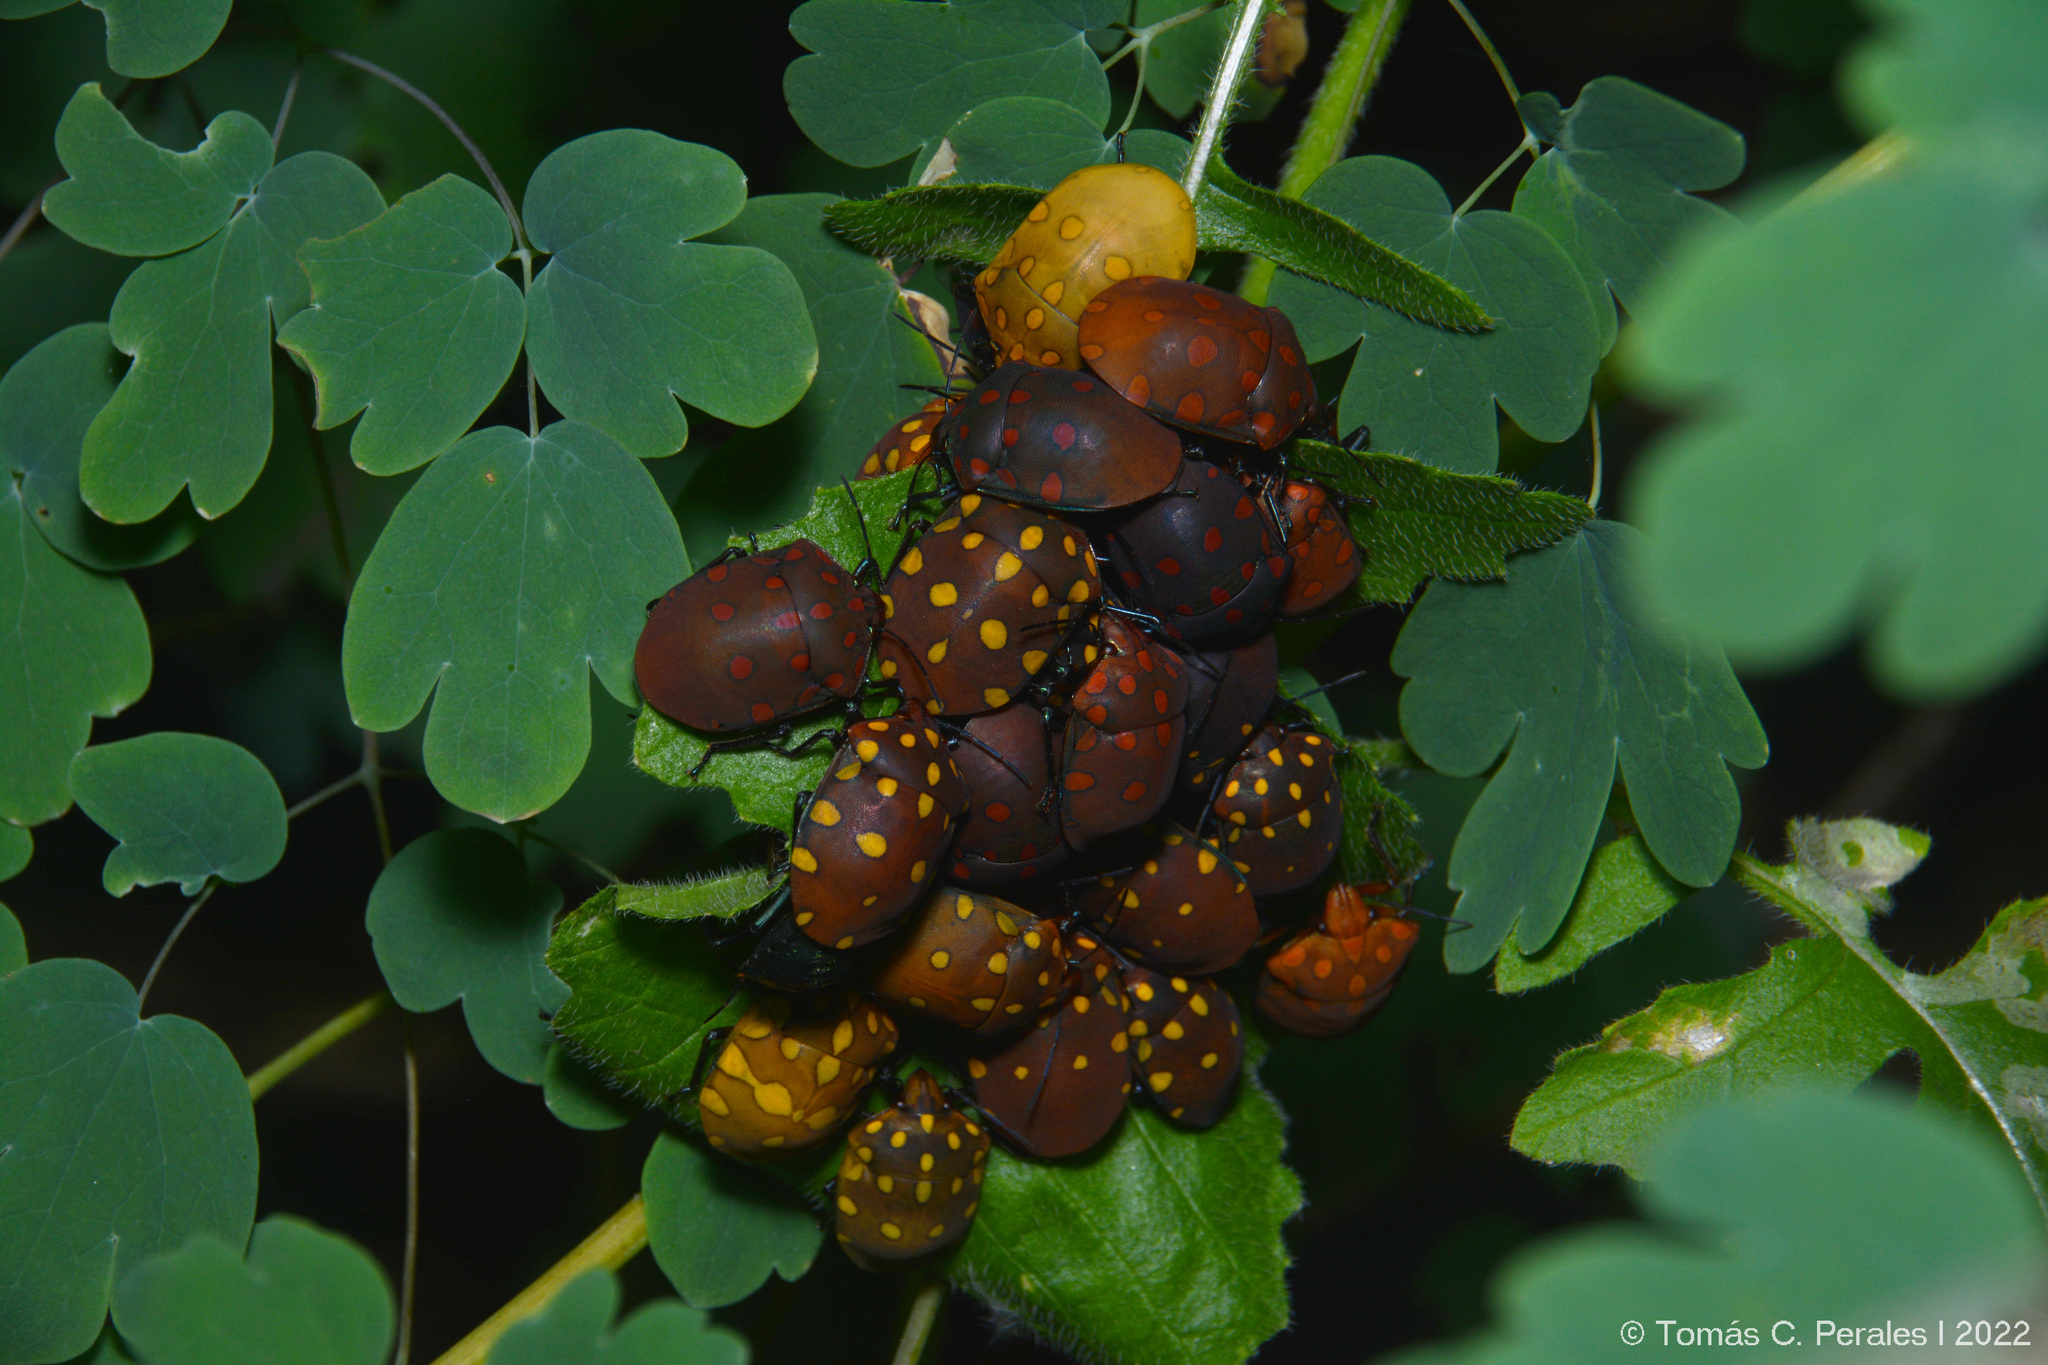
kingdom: Animalia
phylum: Arthropoda
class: Insecta
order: Hemiptera
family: Scutelleridae
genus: Pachycoris
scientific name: Pachycoris torridus
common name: Torrid jewel bug
